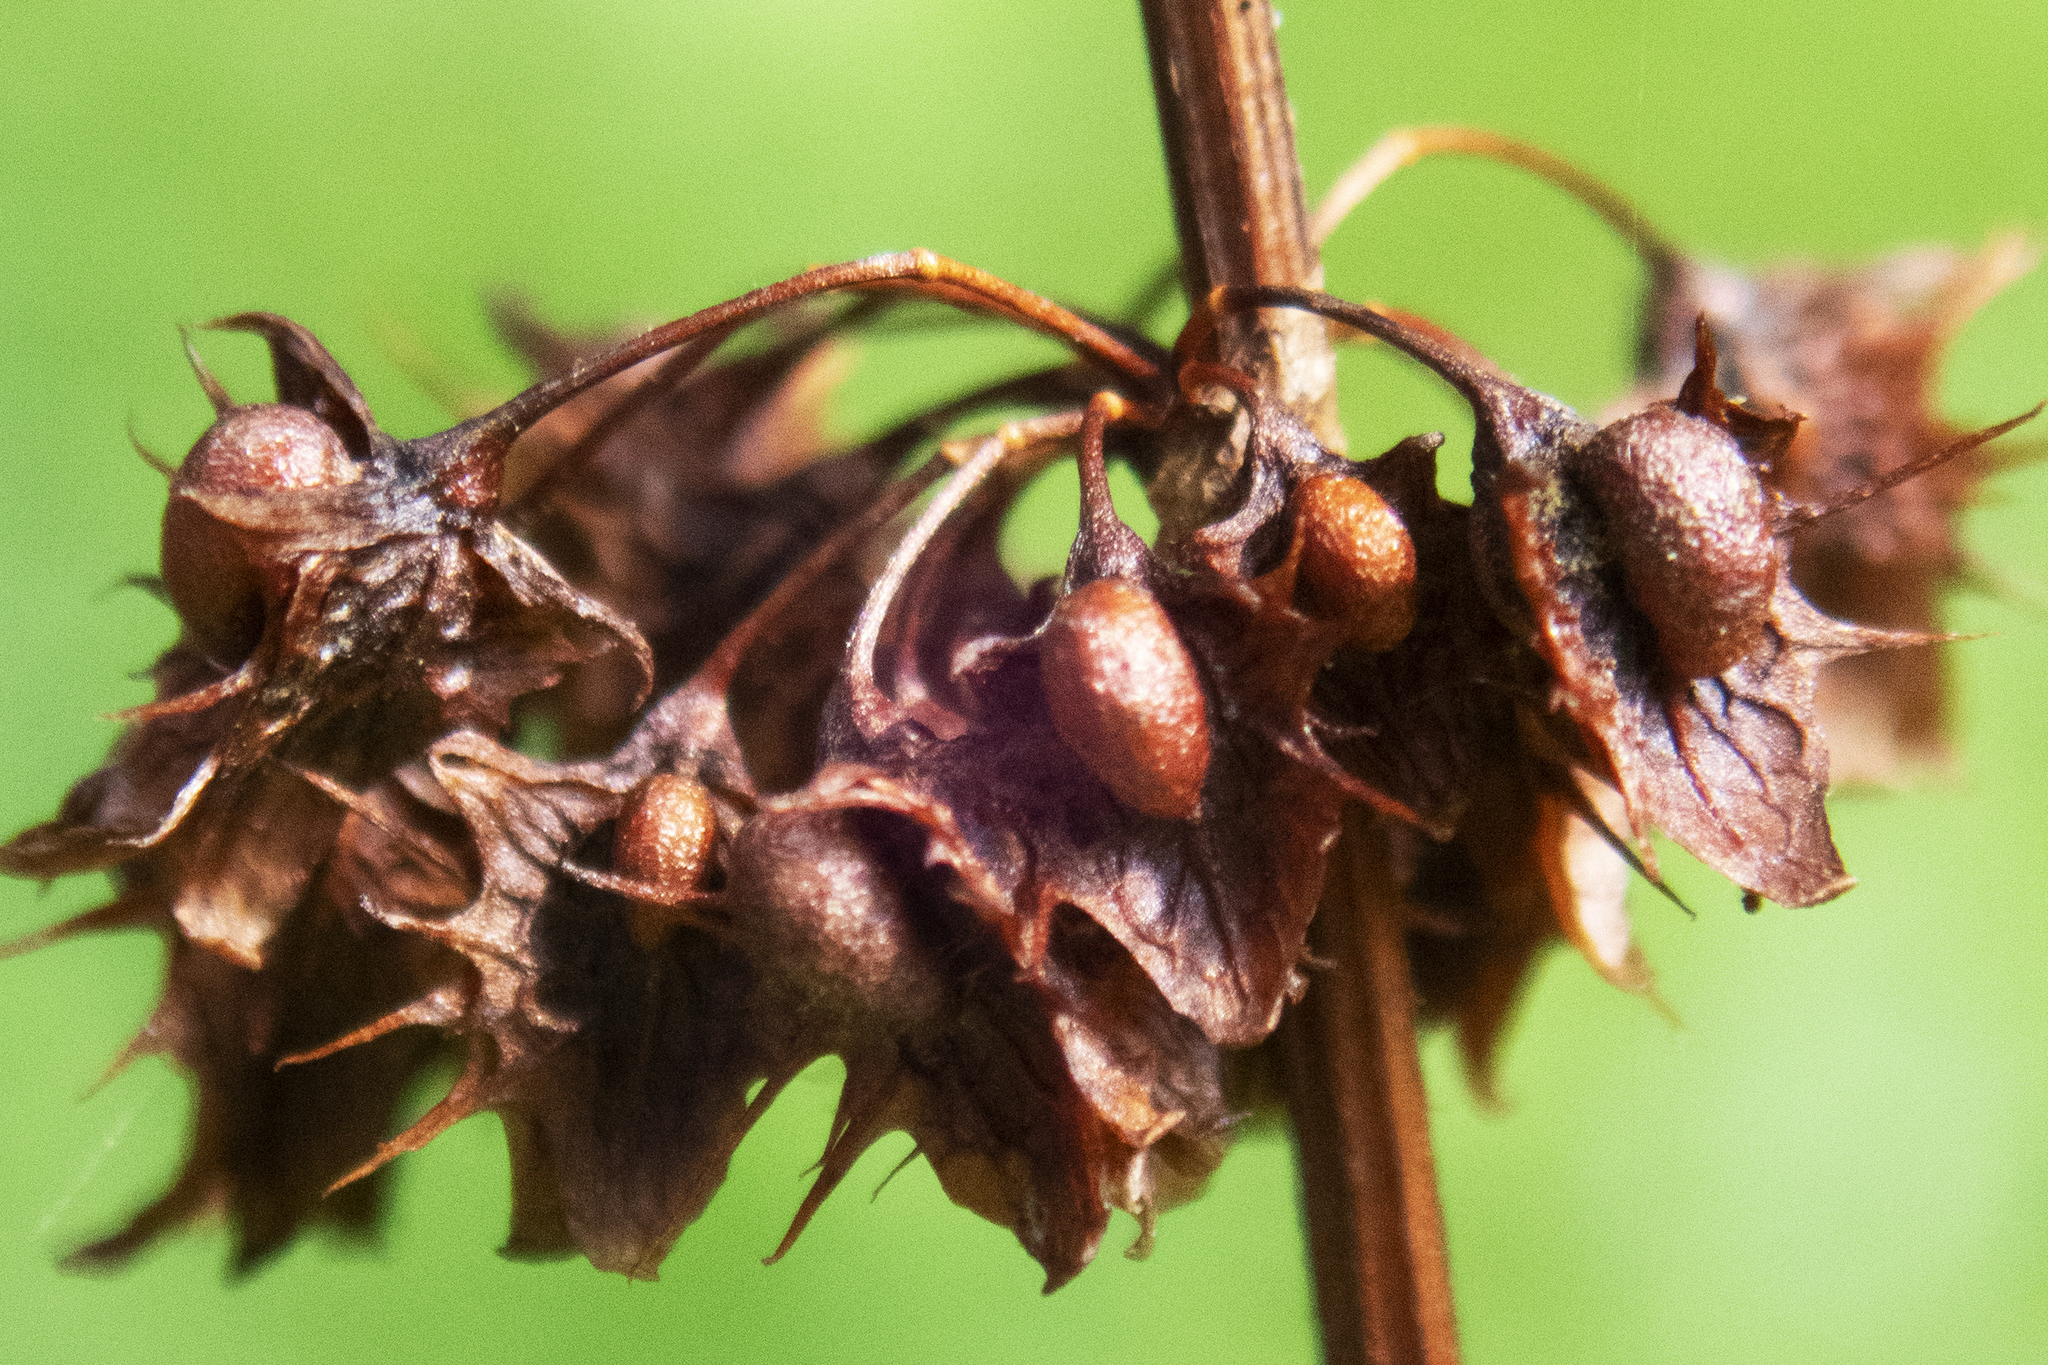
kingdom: Plantae
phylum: Tracheophyta
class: Magnoliopsida
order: Caryophyllales
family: Polygonaceae
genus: Rumex
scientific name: Rumex obtusifolius
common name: Bitter dock
